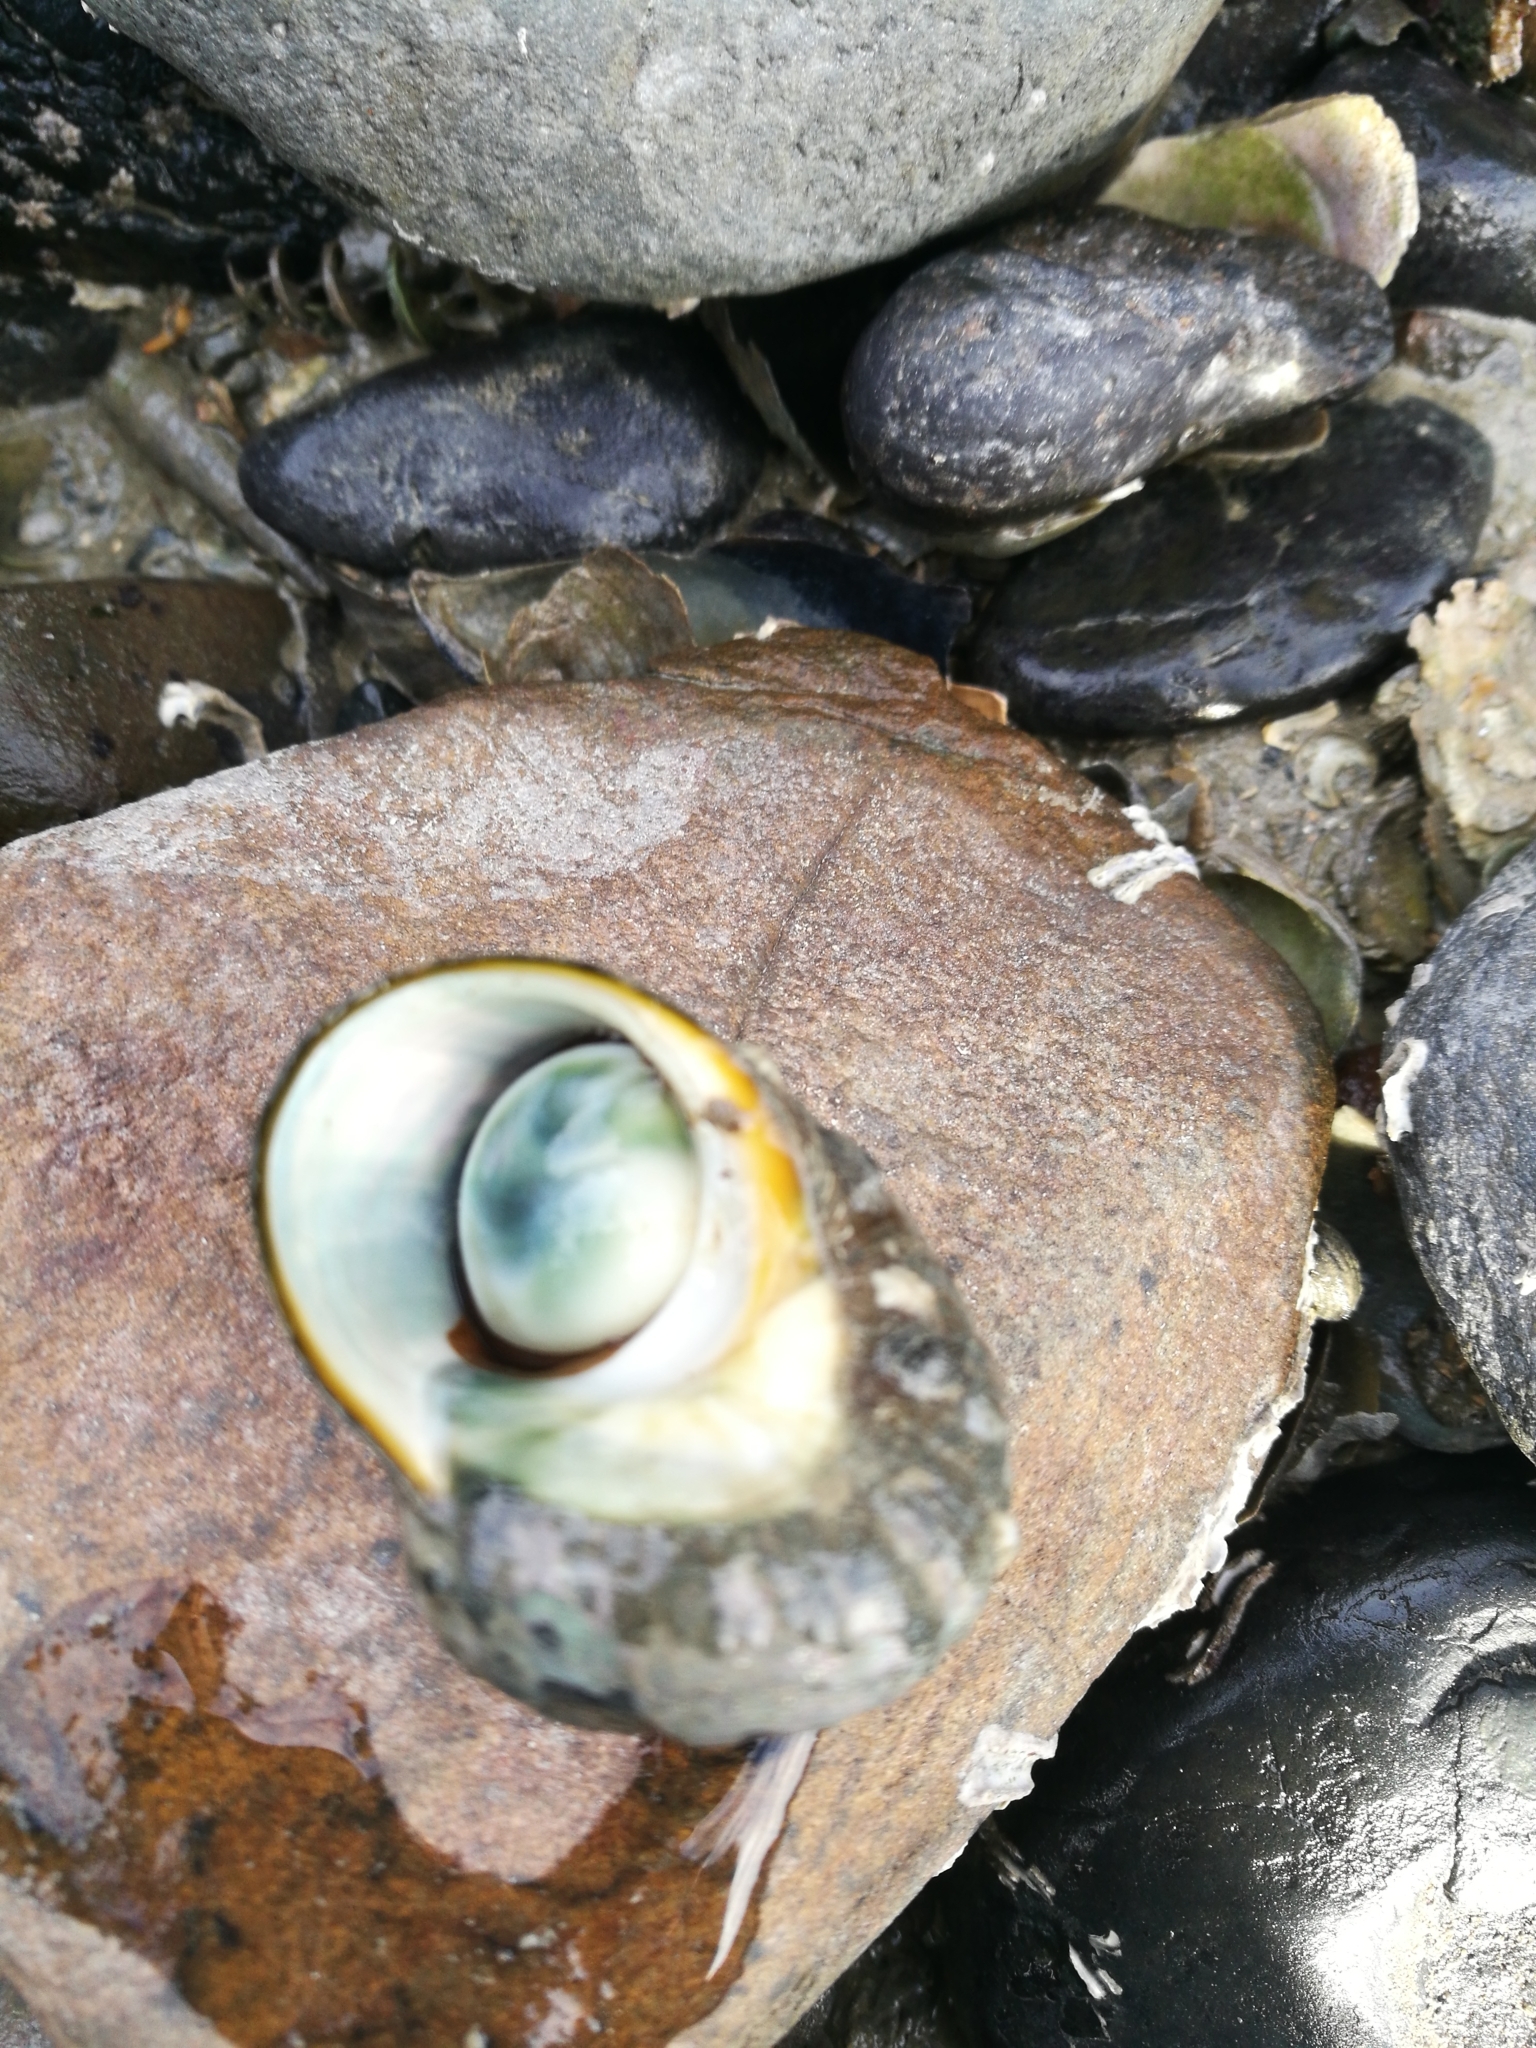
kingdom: Animalia
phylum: Mollusca
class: Gastropoda
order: Trochida
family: Turbinidae
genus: Lunella
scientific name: Lunella smaragda
